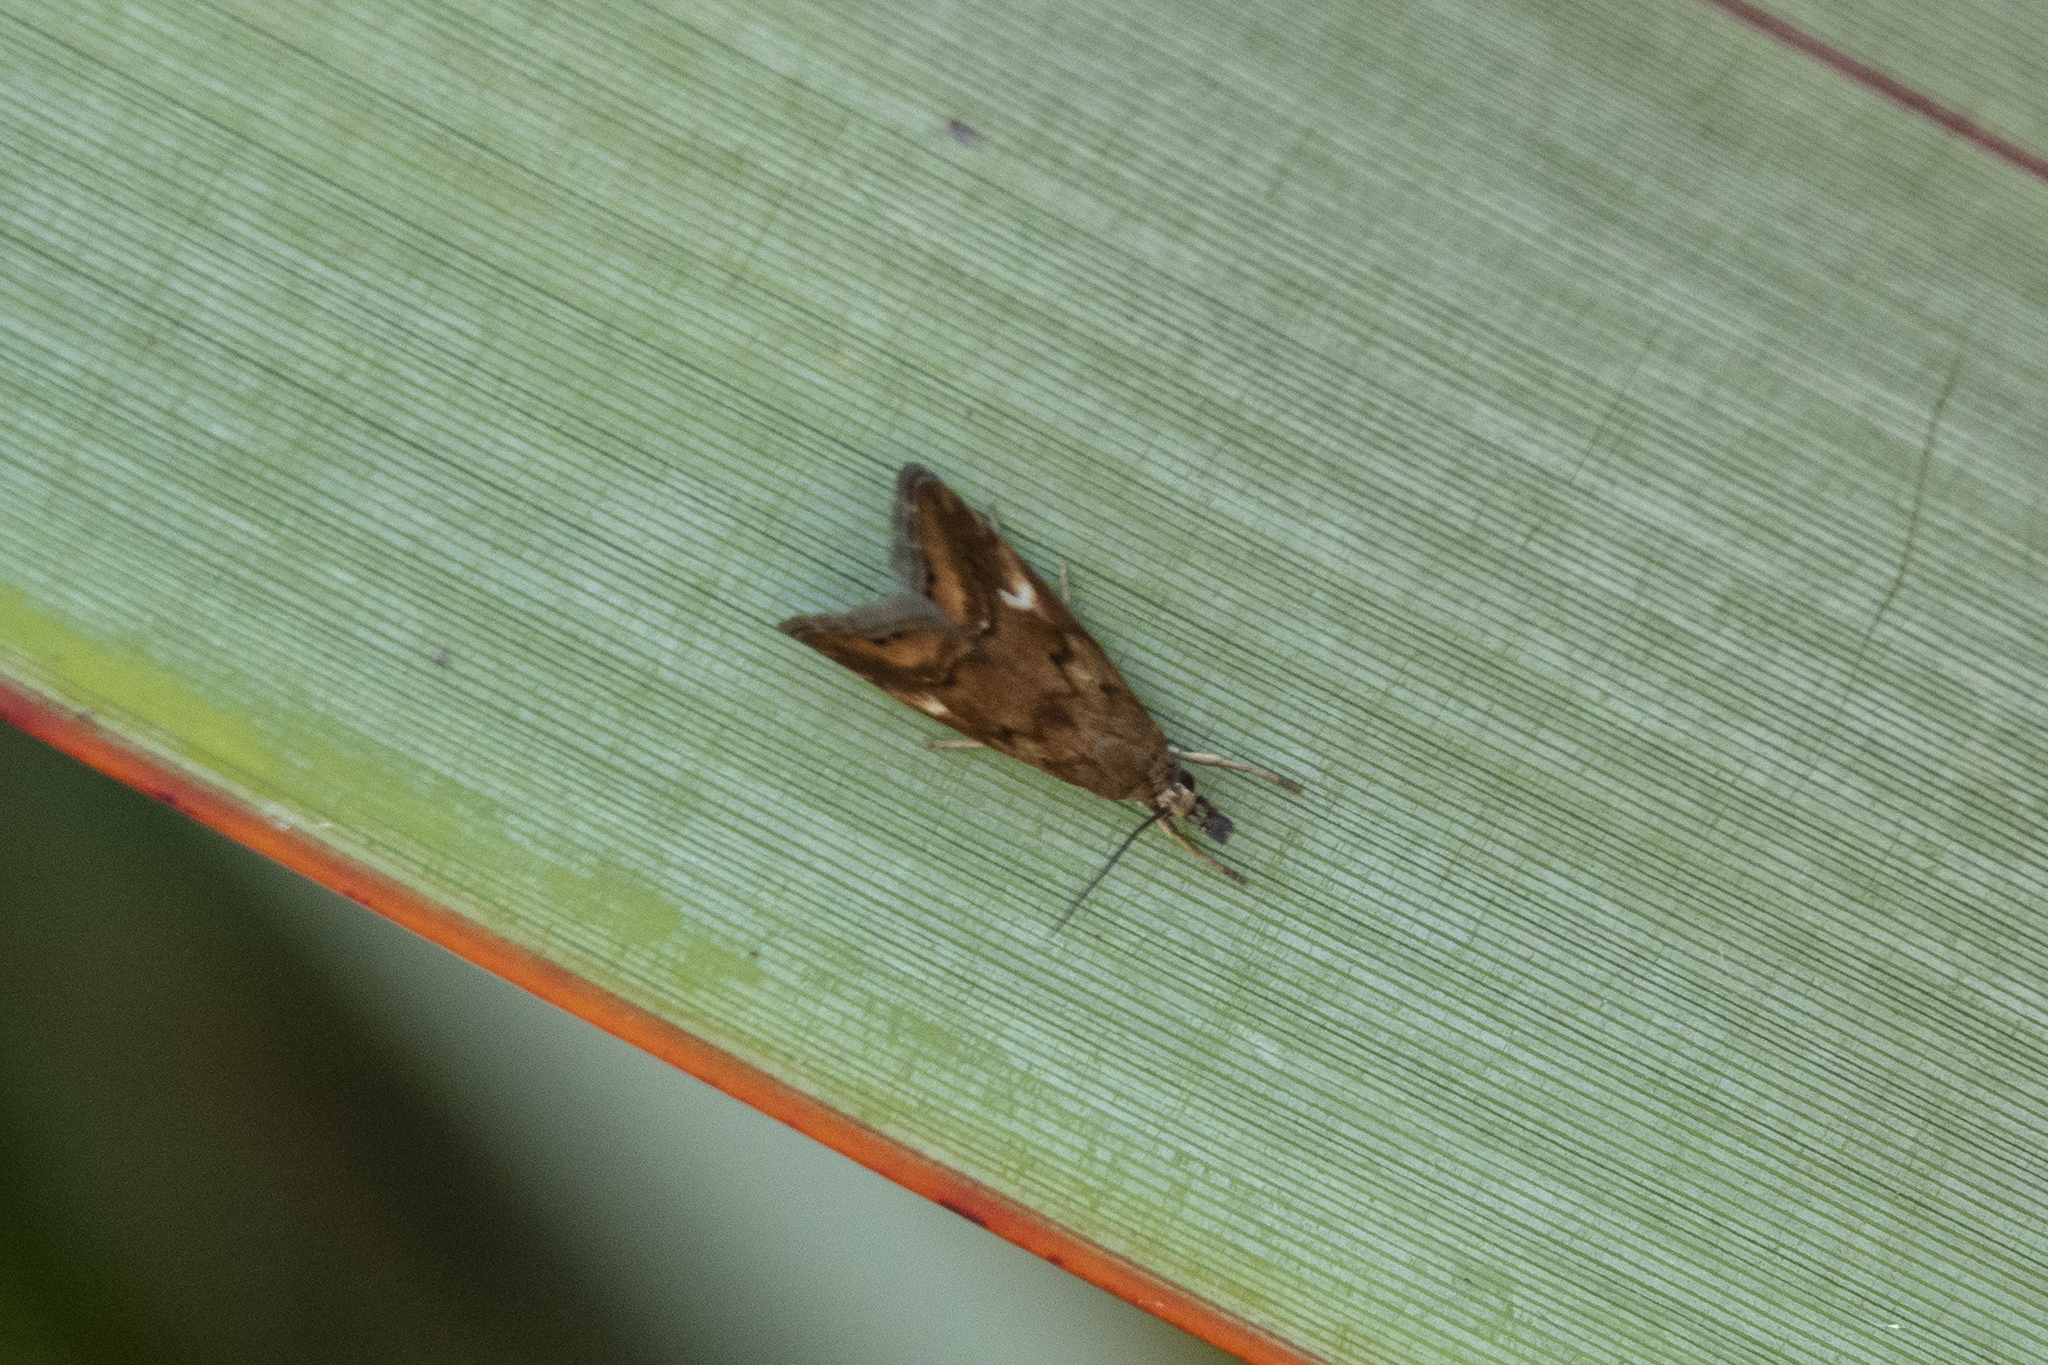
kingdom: Animalia
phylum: Arthropoda
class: Insecta
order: Lepidoptera
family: Crambidae
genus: Glaucocharis
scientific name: Glaucocharis helioctypa
